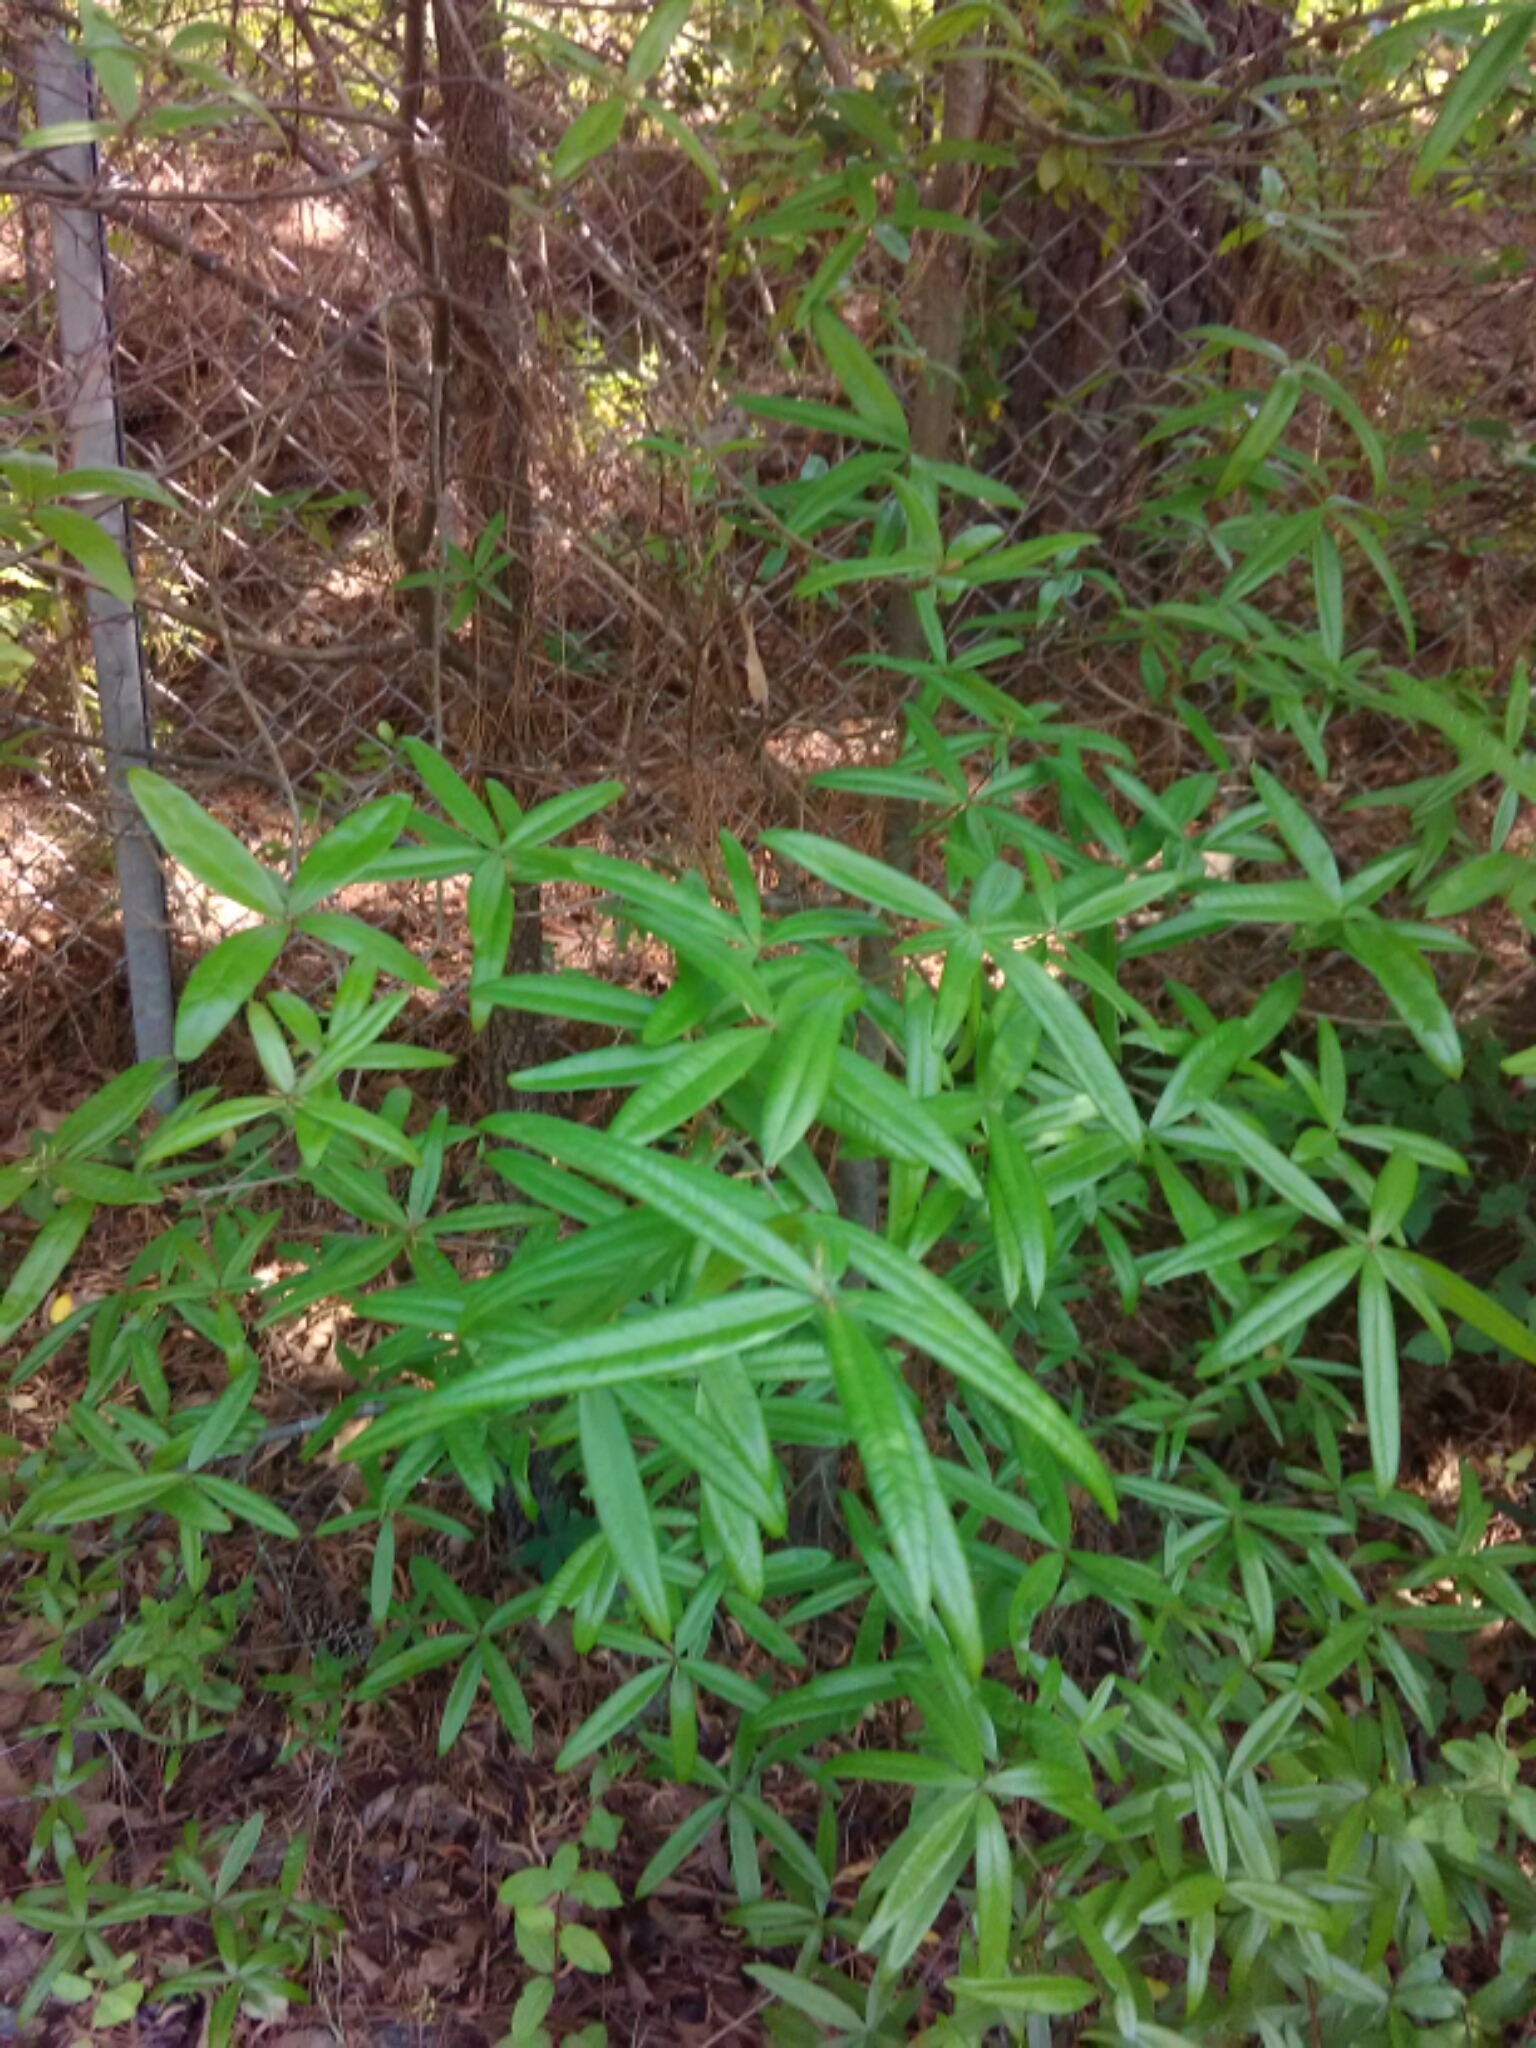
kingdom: Plantae
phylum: Tracheophyta
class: Magnoliopsida
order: Fagales
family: Fagaceae
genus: Quercus
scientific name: Quercus phellos
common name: Willow oak
